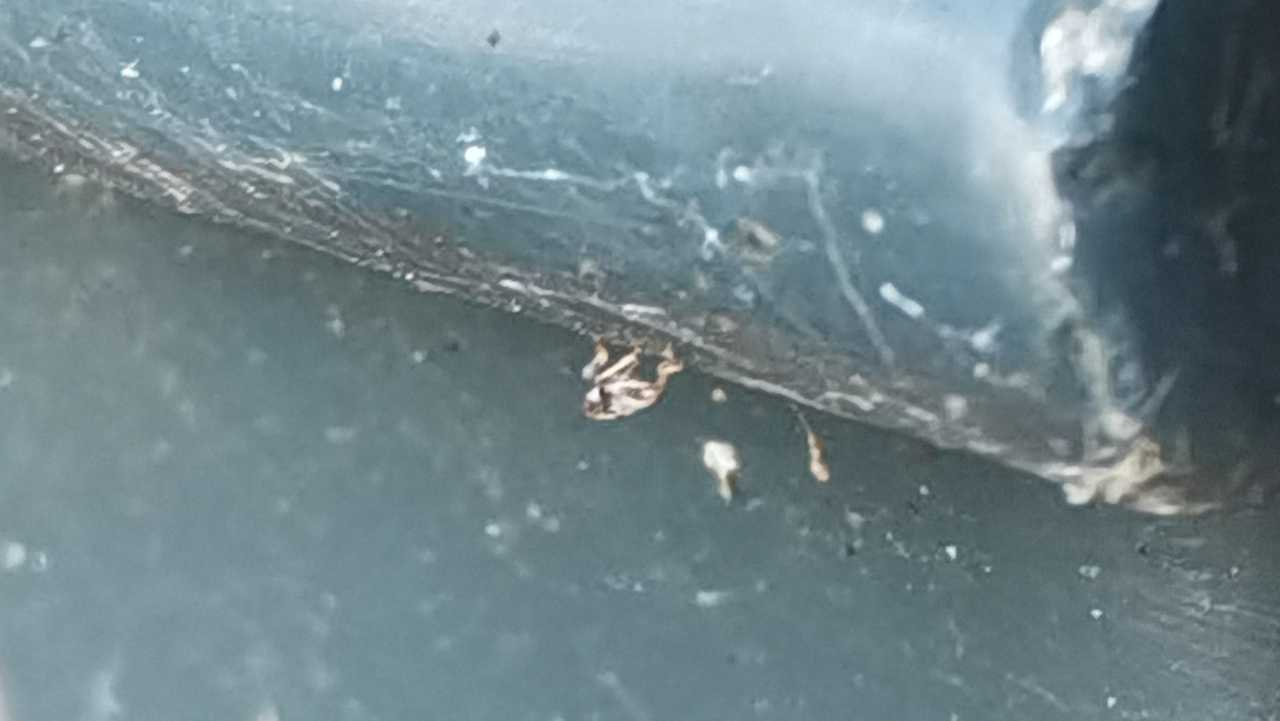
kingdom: Animalia
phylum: Arthropoda
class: Insecta
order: Hemiptera
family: Issidae
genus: Issus
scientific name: Issus
